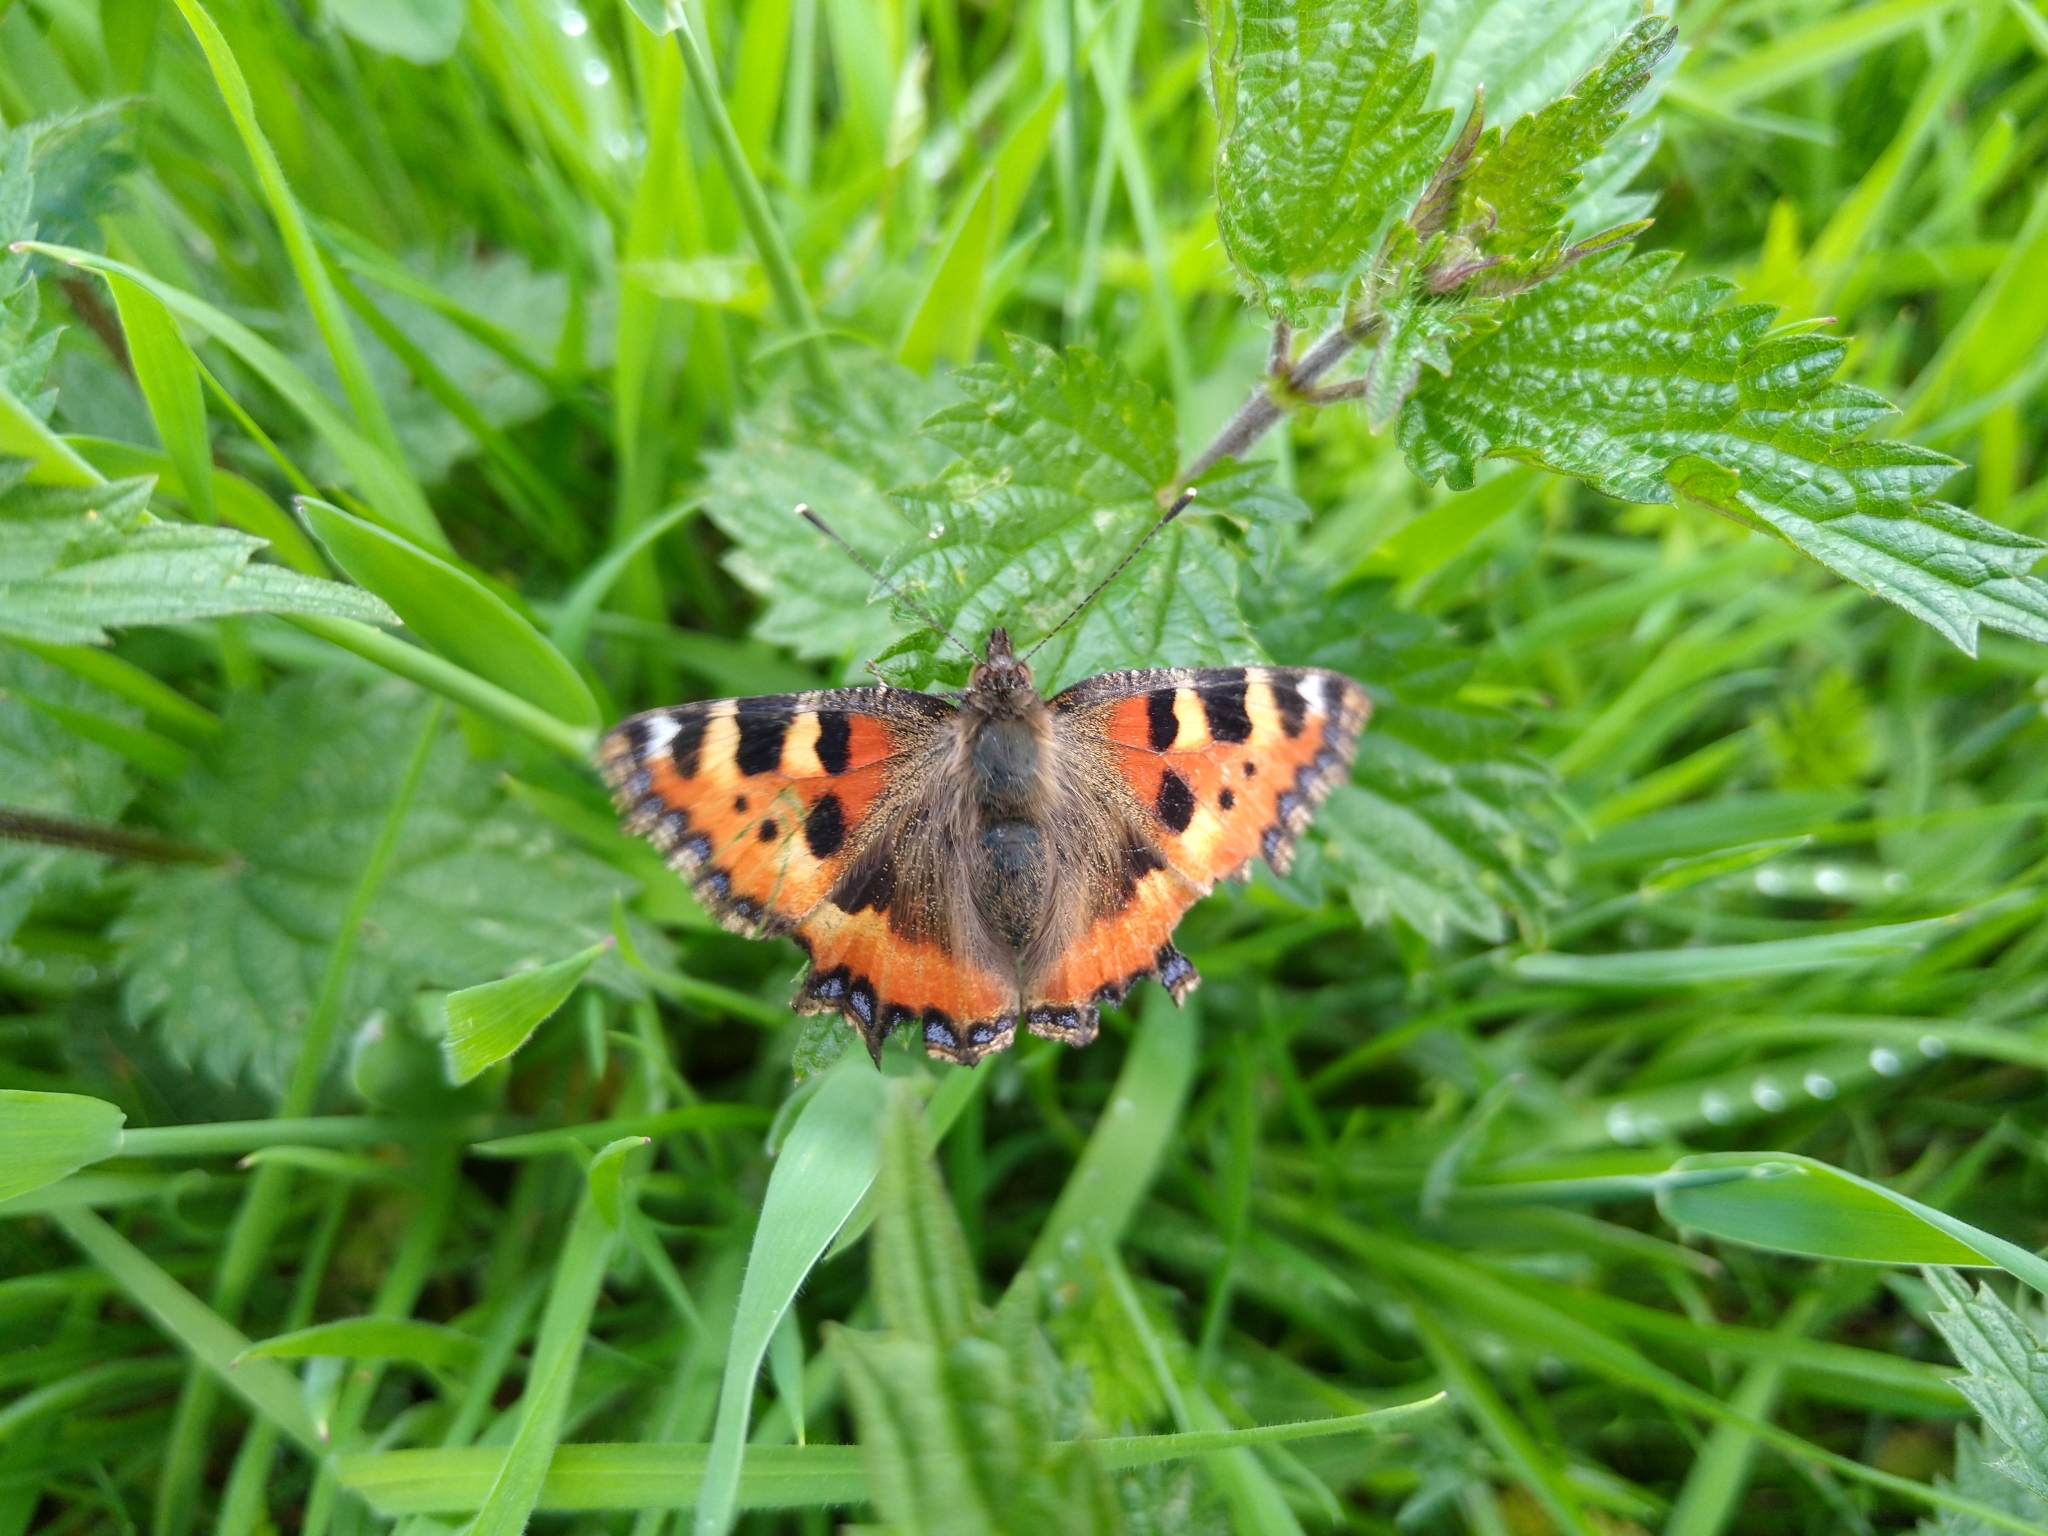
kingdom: Animalia
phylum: Arthropoda
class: Insecta
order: Lepidoptera
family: Nymphalidae
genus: Aglais
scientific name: Aglais urticae
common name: Small tortoiseshell
